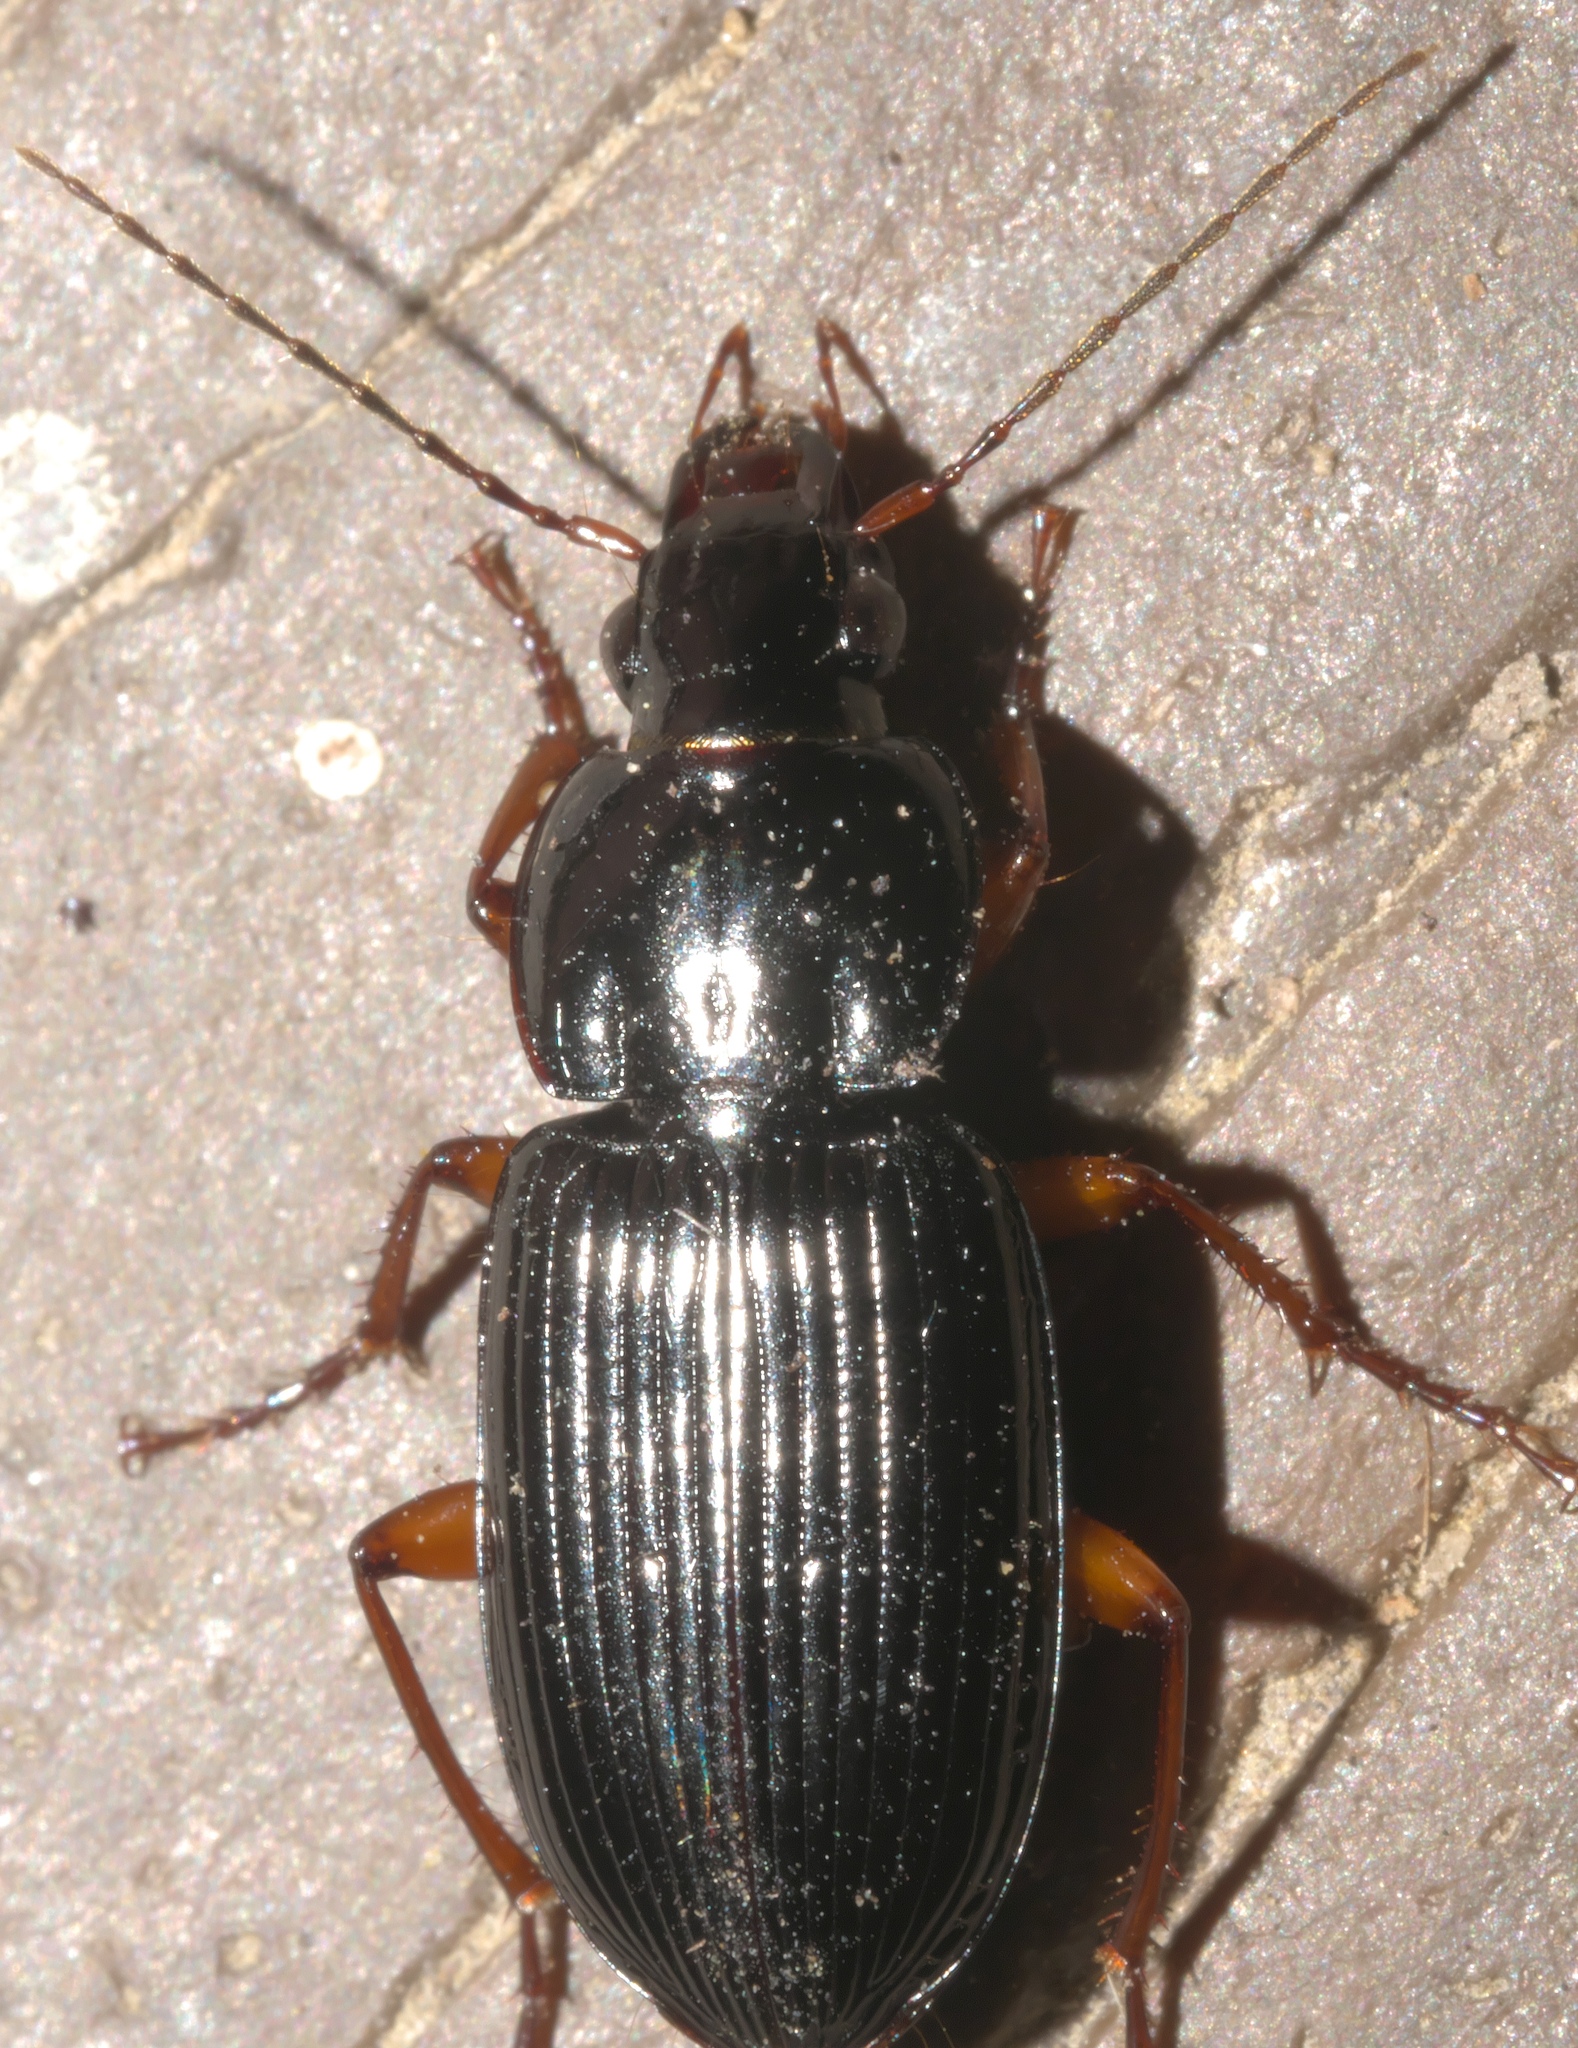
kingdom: Animalia
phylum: Arthropoda
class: Insecta
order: Coleoptera
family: Carabidae
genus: Oxycrepis
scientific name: Oxycrepis recta
